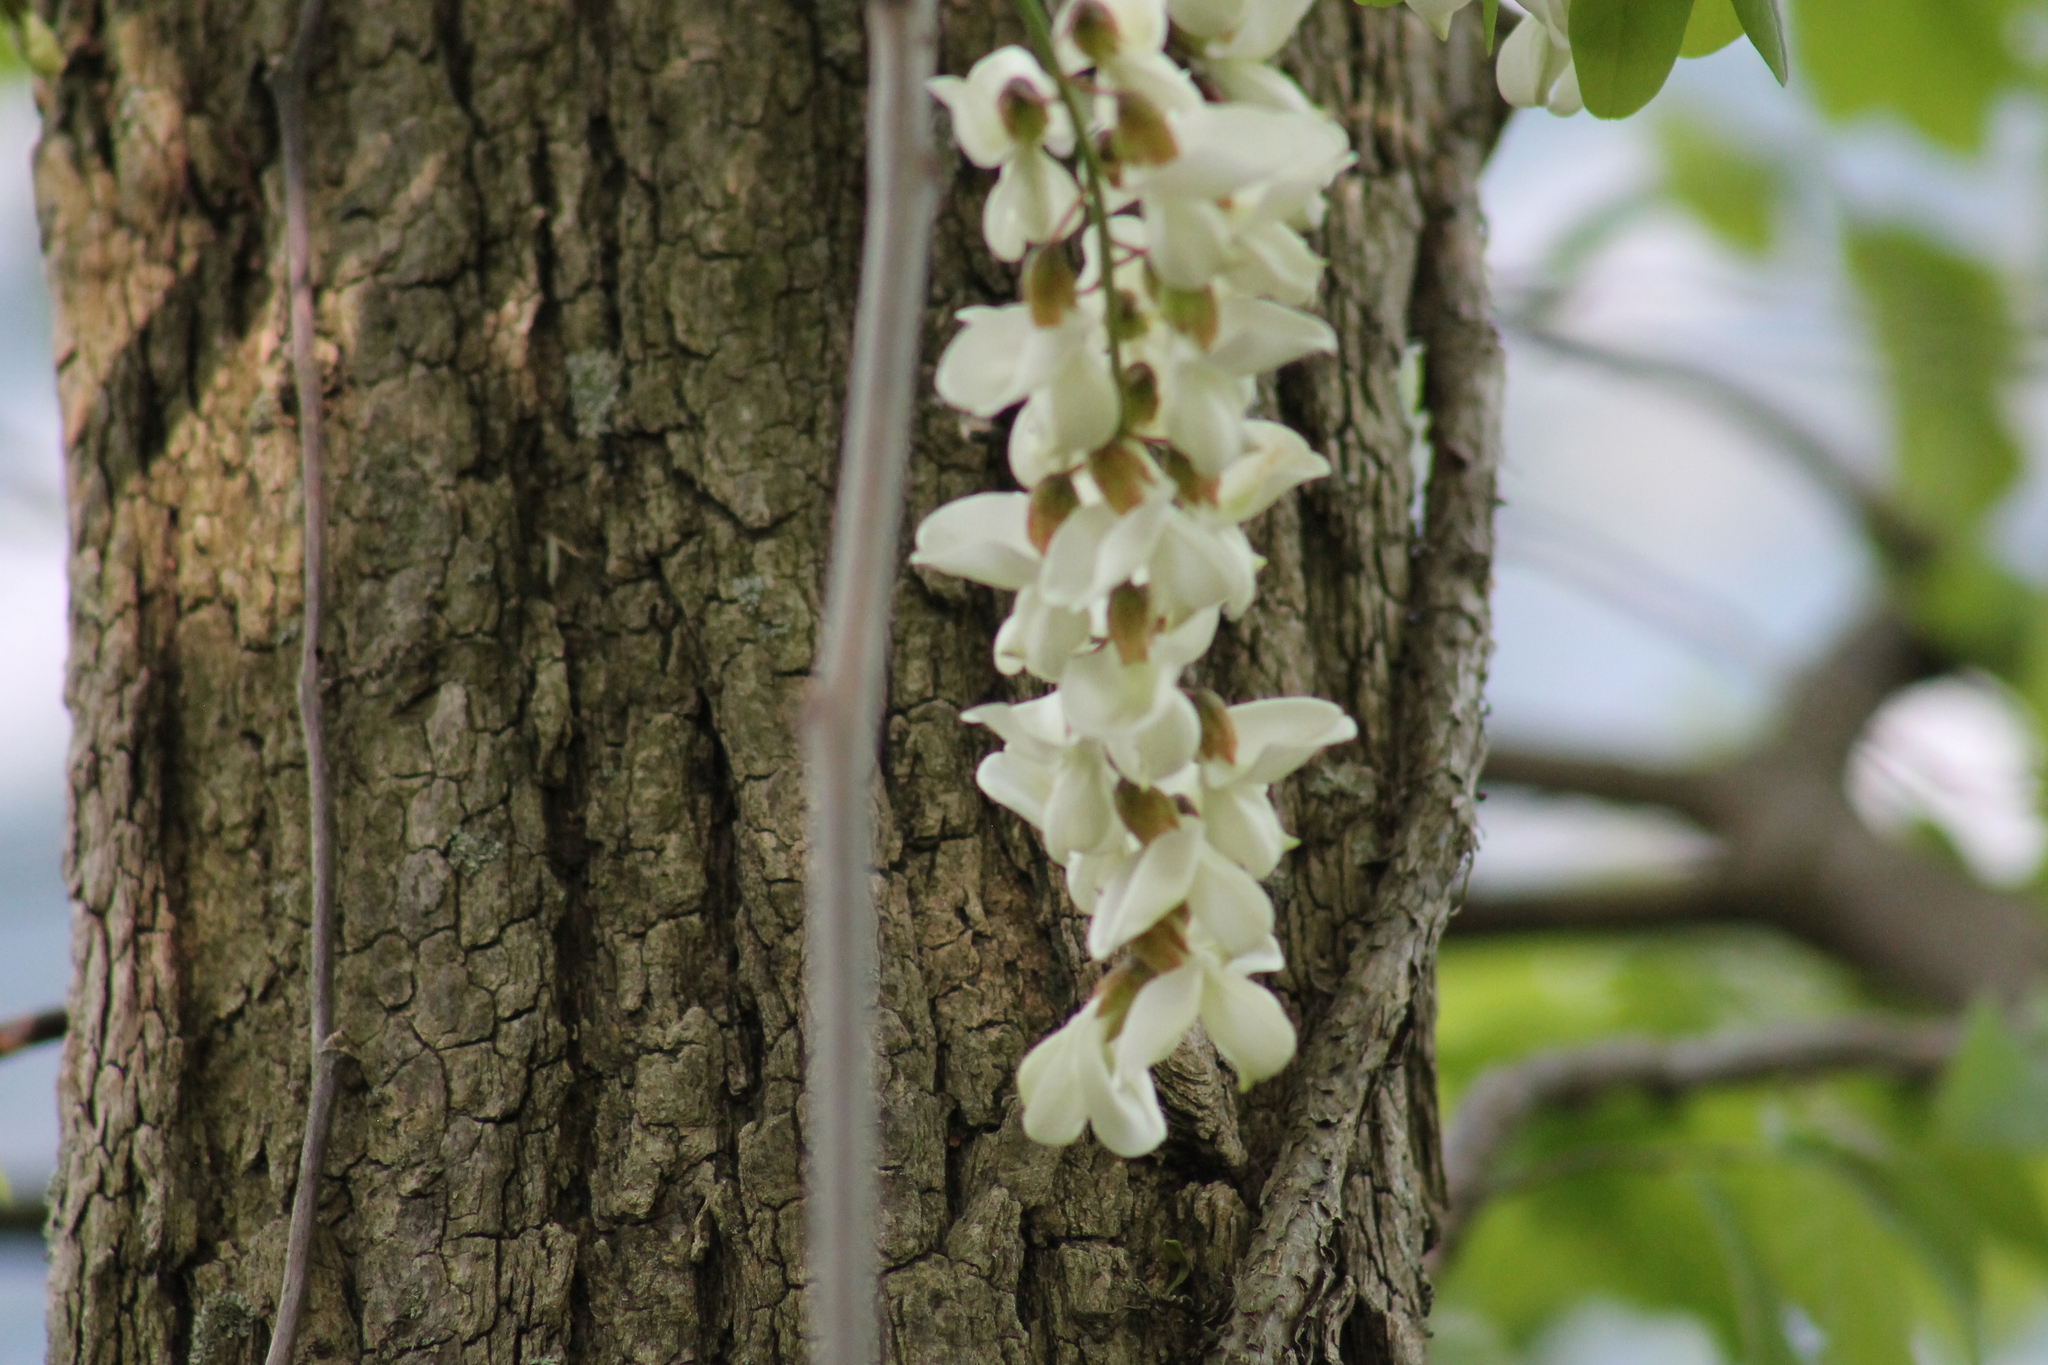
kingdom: Plantae
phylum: Tracheophyta
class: Magnoliopsida
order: Fabales
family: Fabaceae
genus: Robinia
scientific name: Robinia pseudoacacia
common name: Black locust
